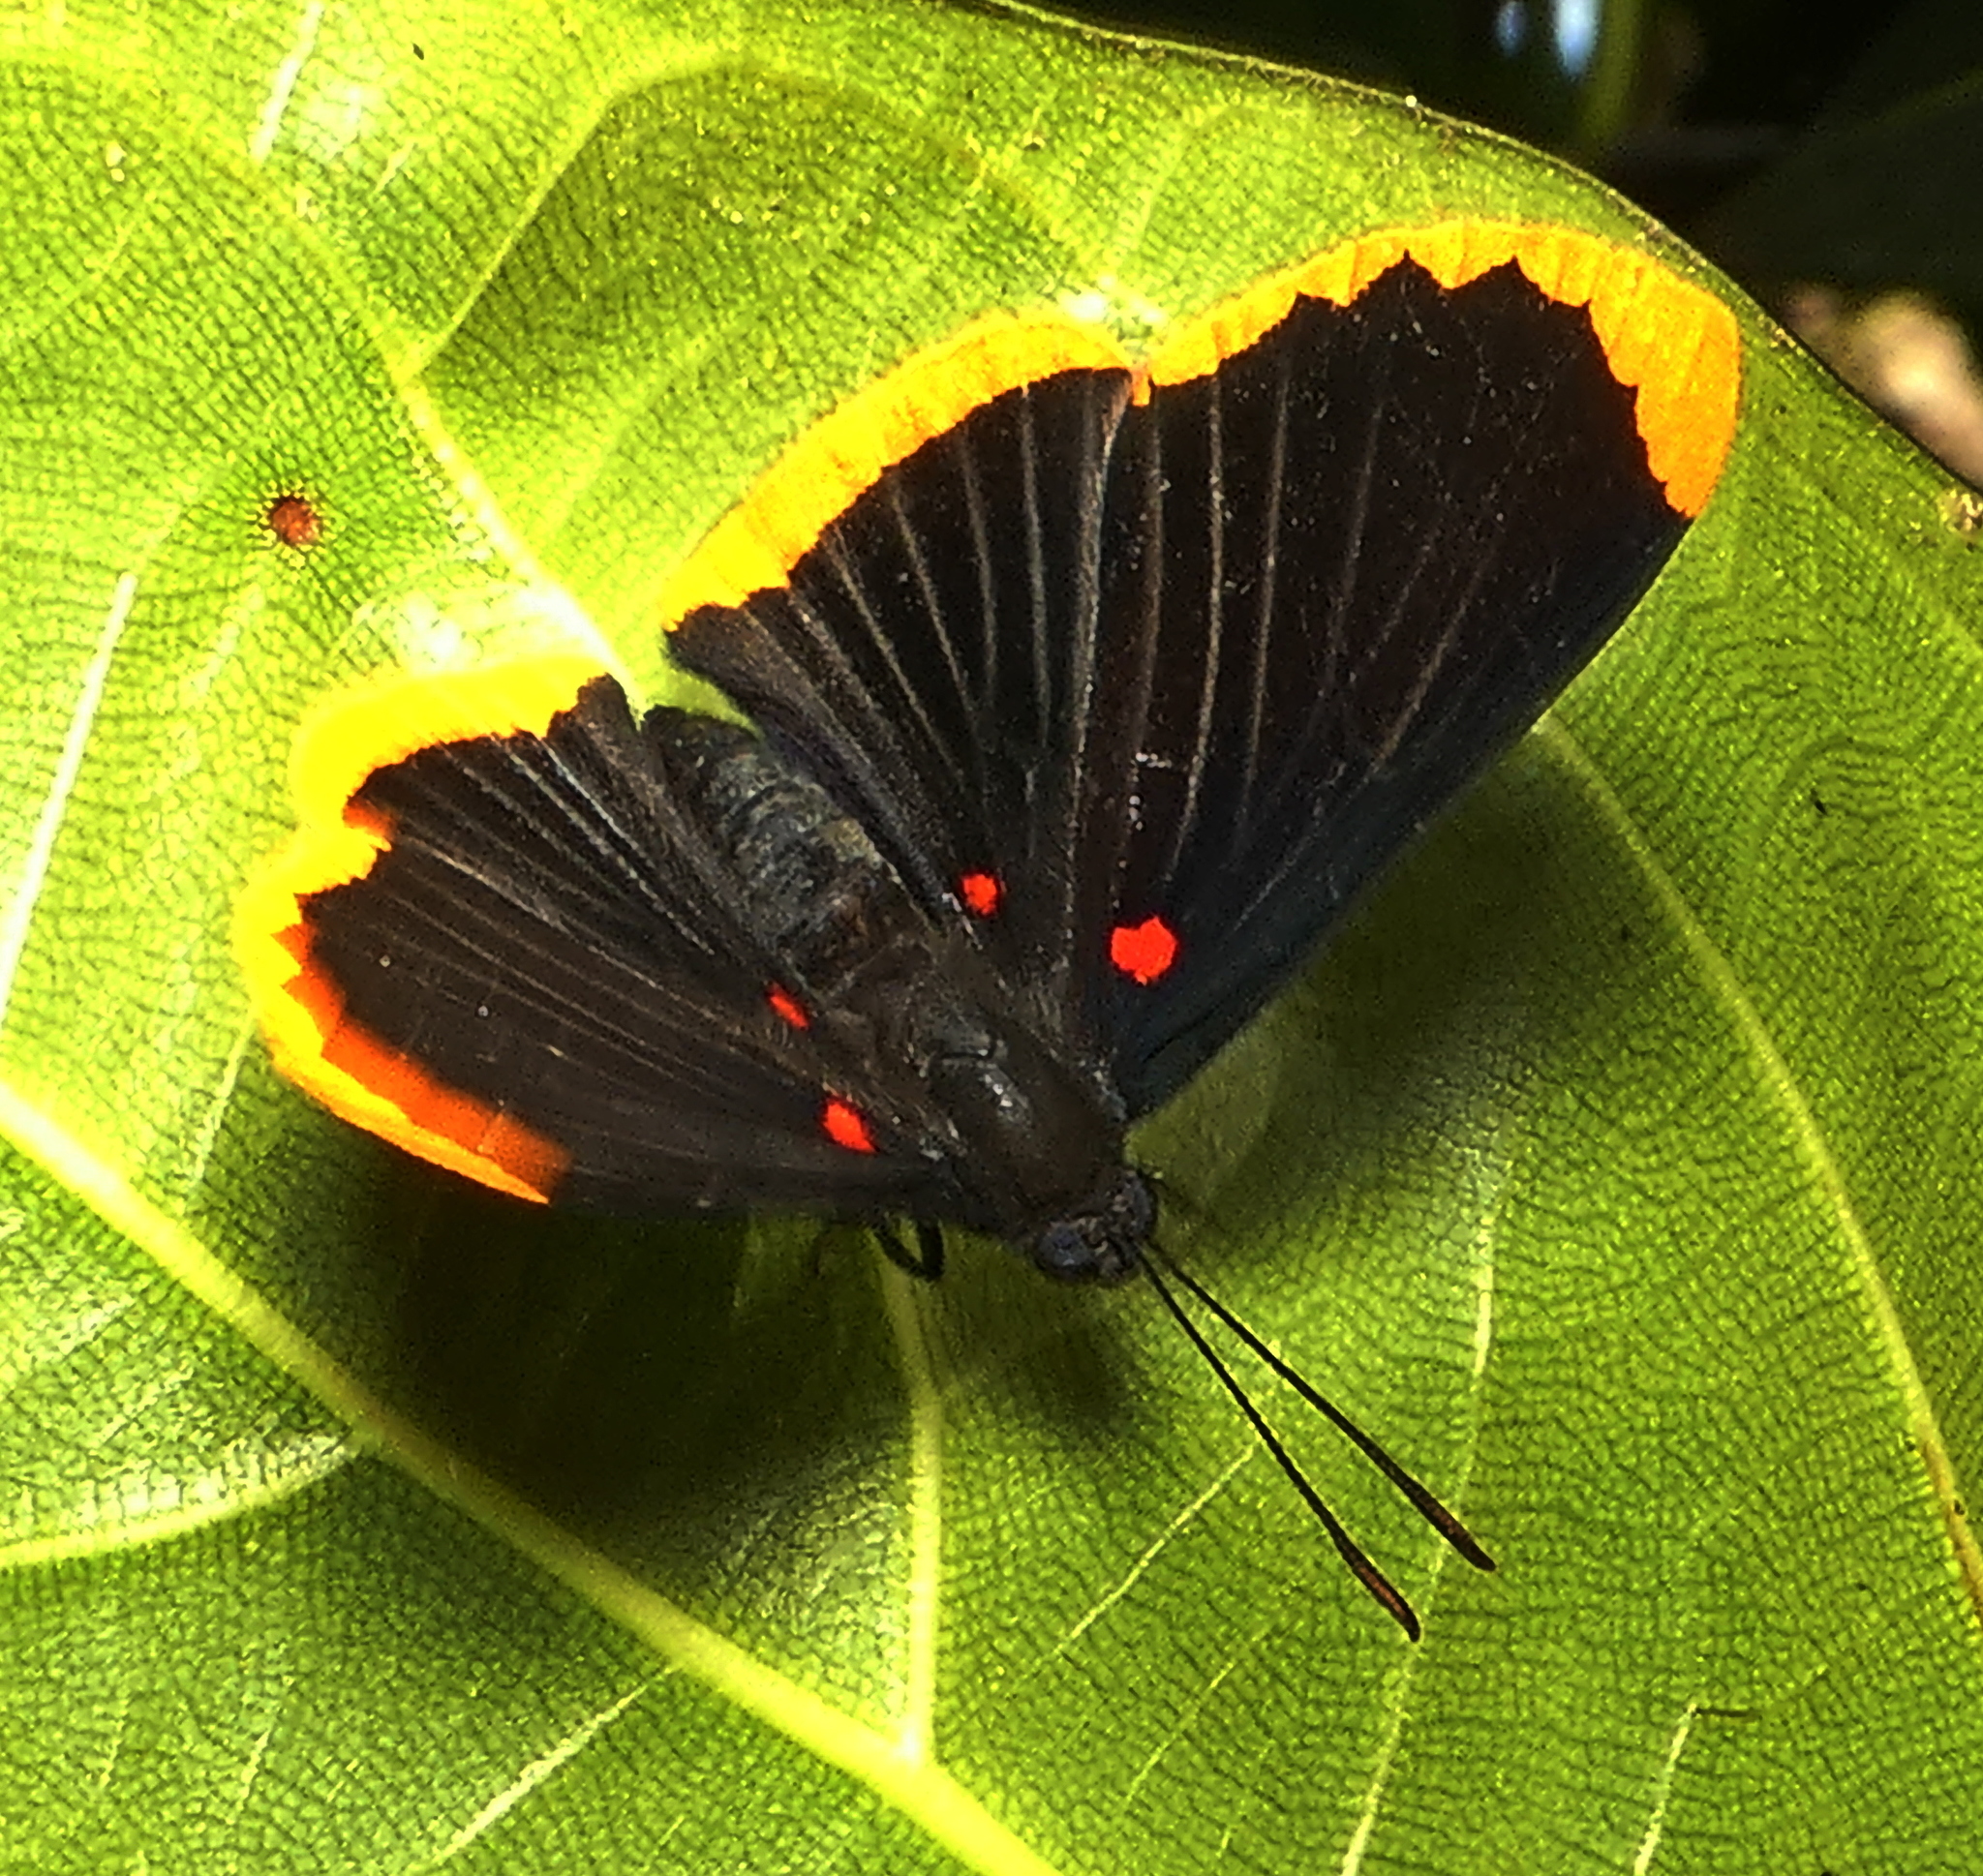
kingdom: Animalia
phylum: Arthropoda
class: Insecta
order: Lepidoptera
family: Lycaenidae
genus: Melanis
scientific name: Melanis smithiae
